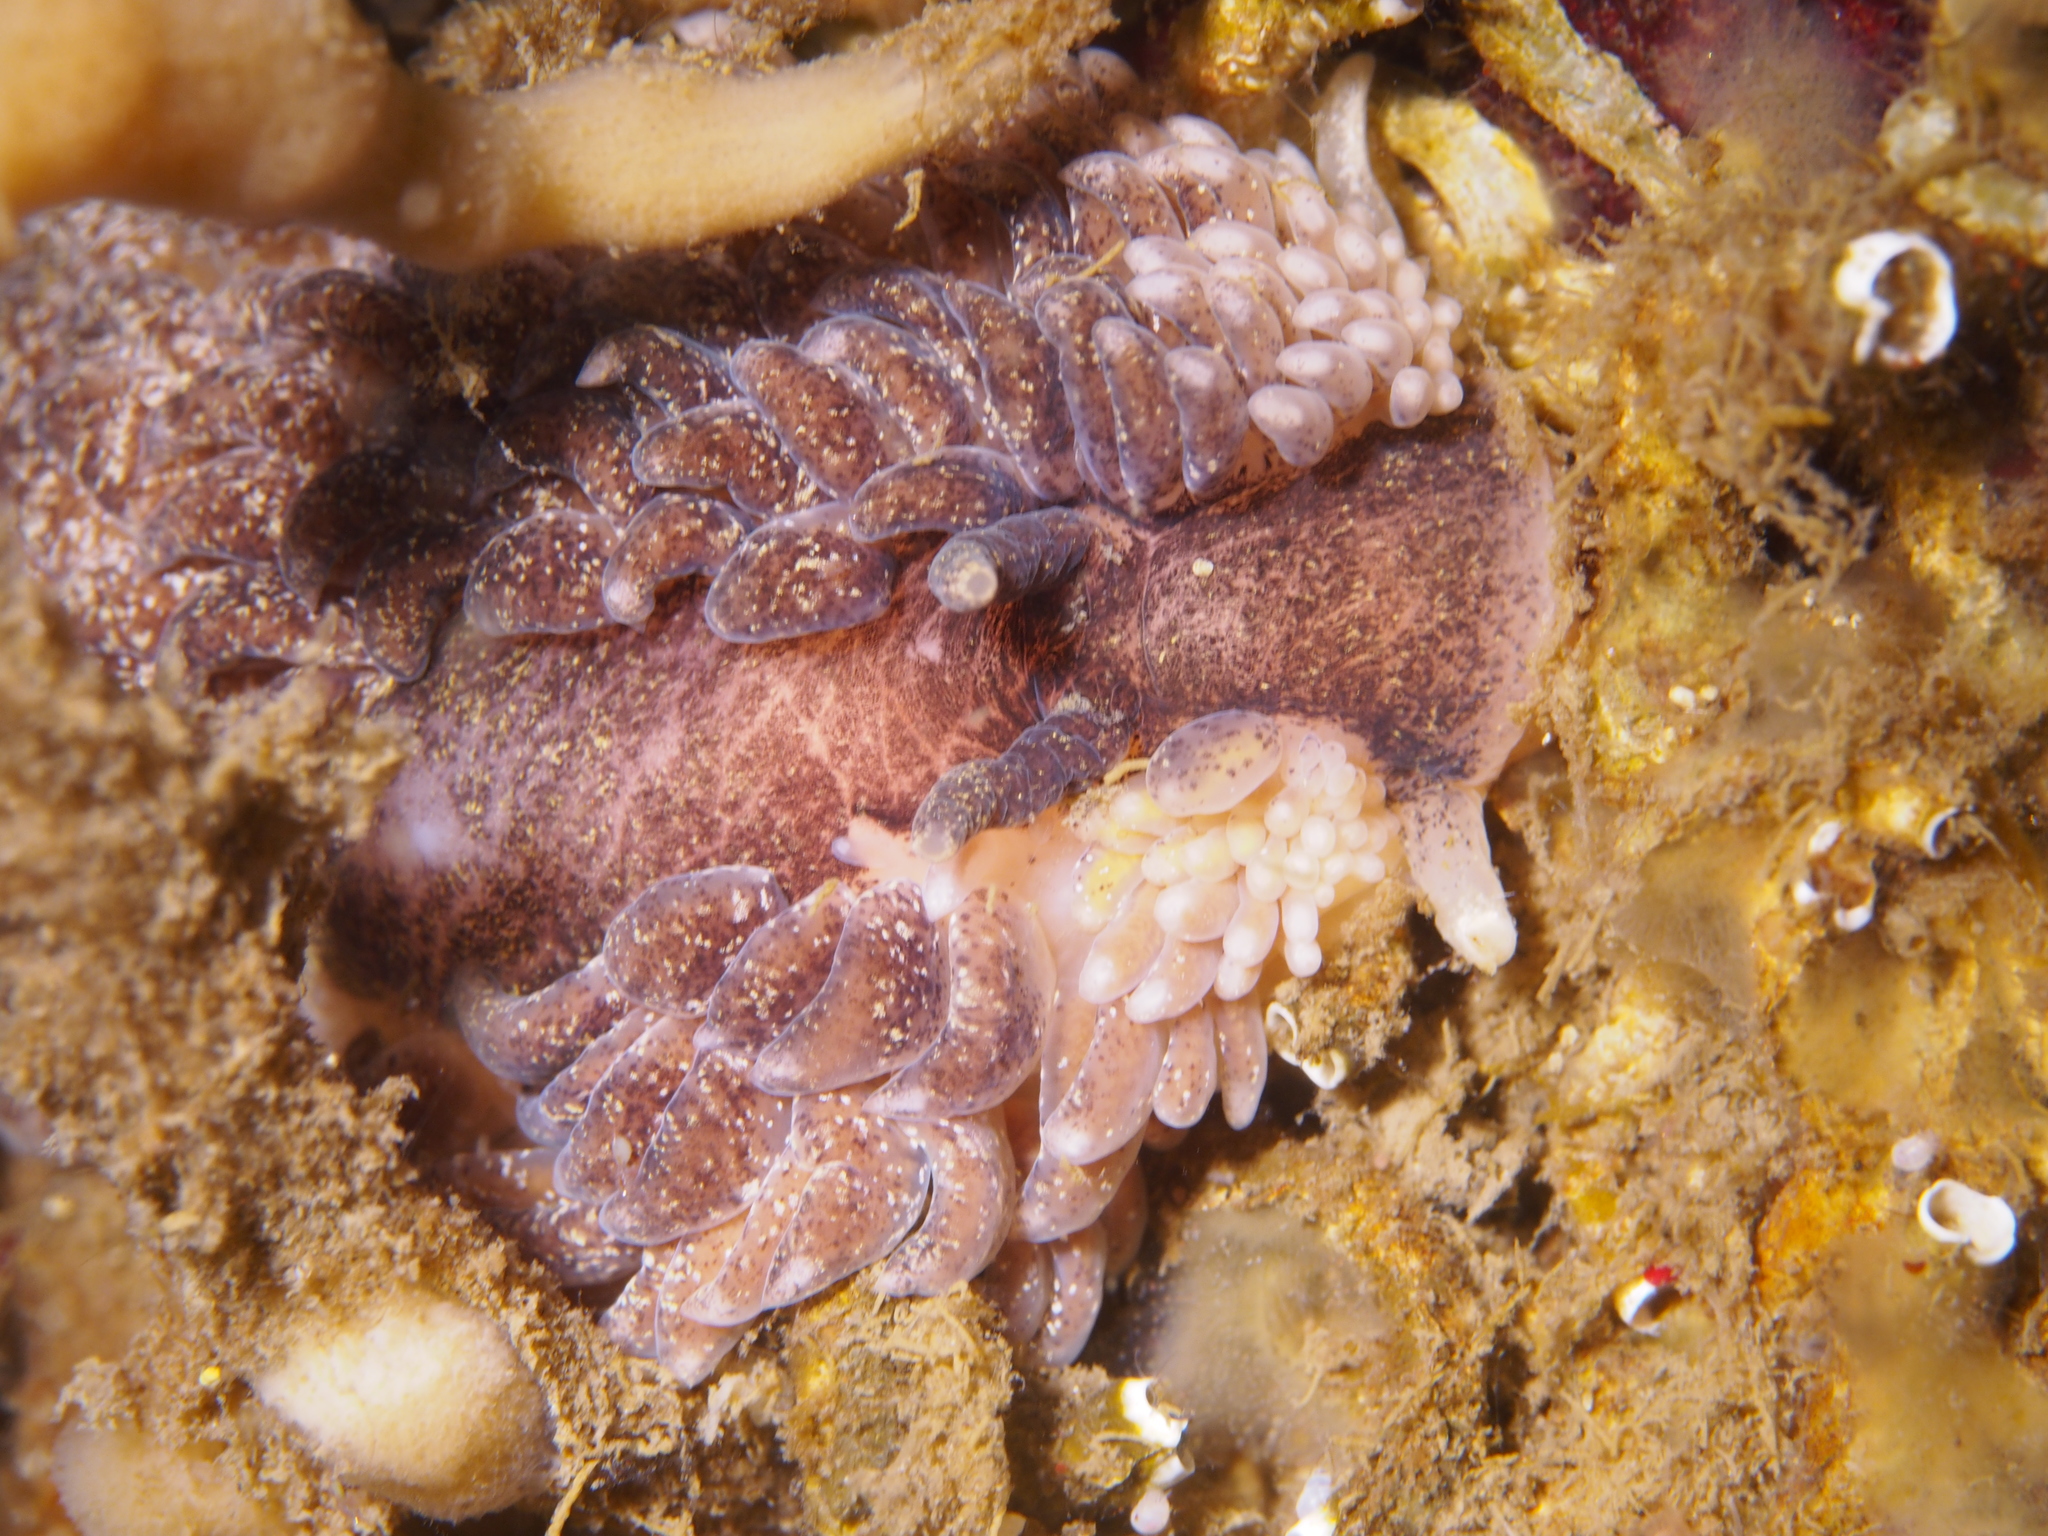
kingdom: Animalia
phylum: Mollusca
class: Gastropoda
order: Nudibranchia
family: Aeolidiidae
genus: Aeolidia
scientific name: Aeolidia papillosa
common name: Common grey sea slug
